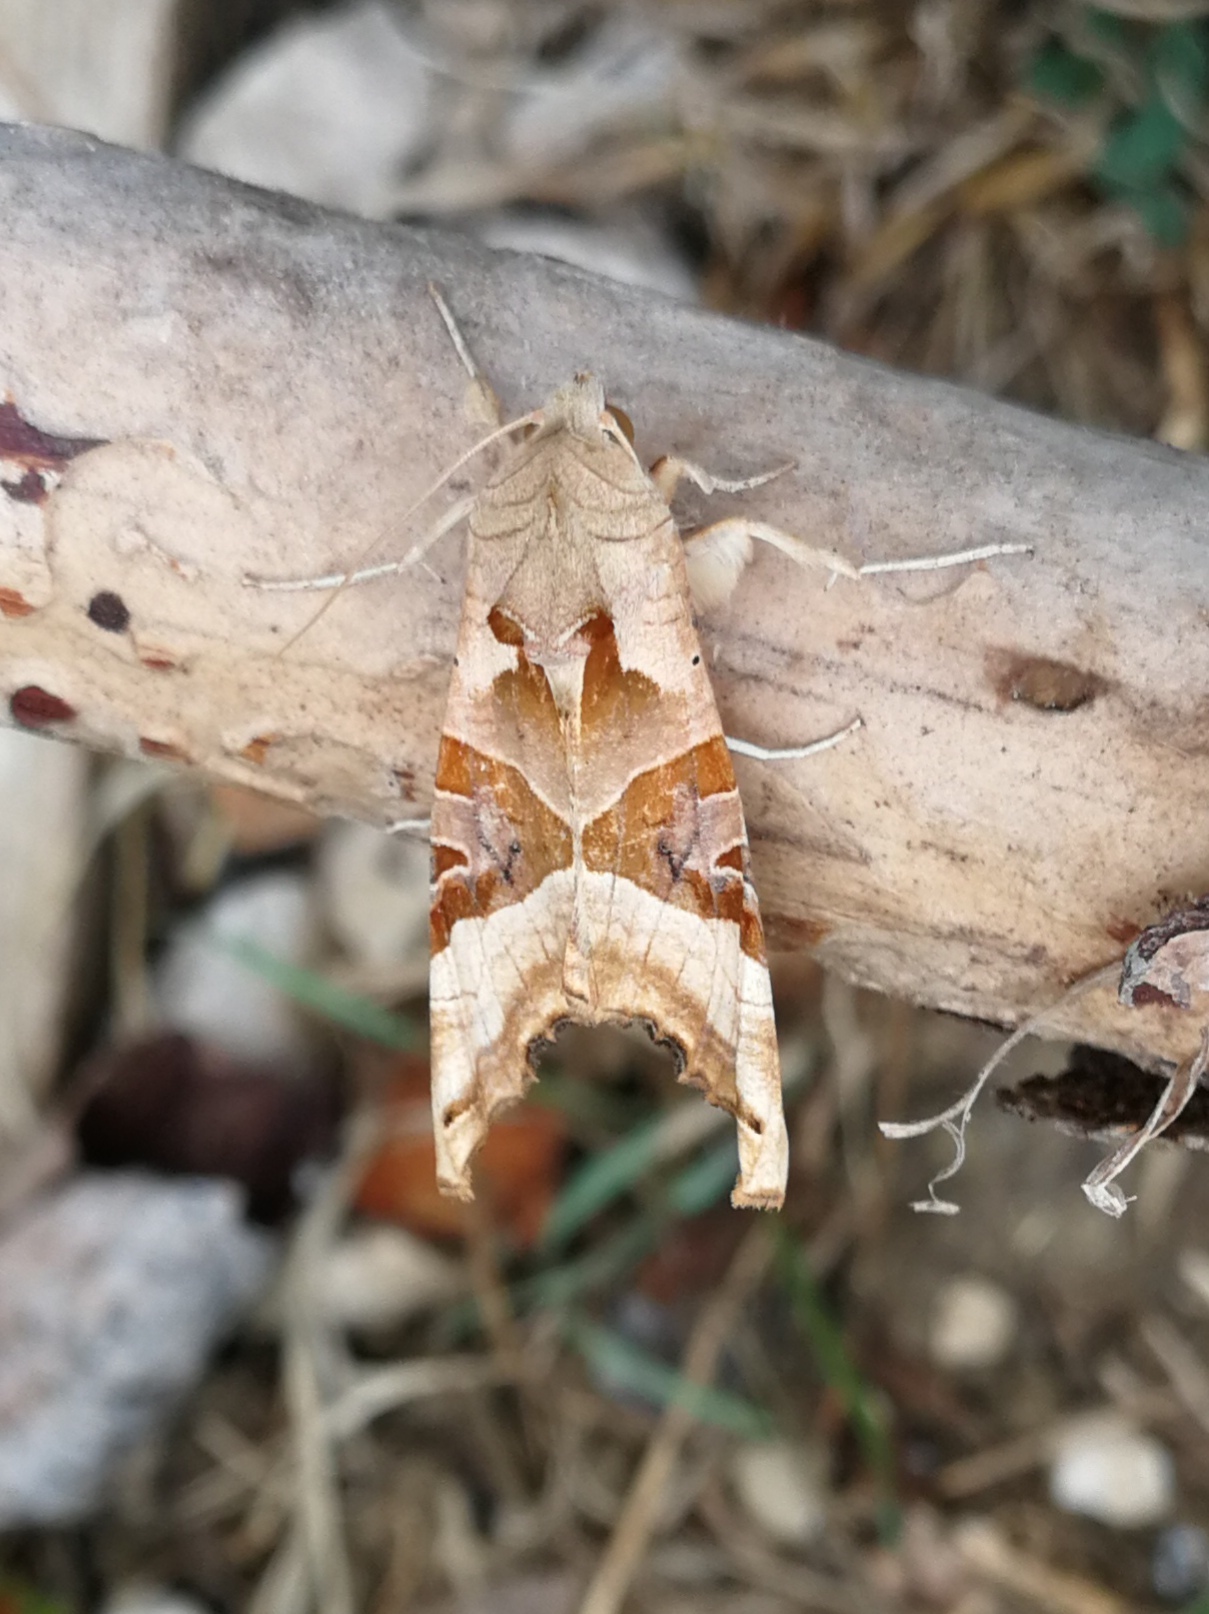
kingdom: Animalia
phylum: Arthropoda
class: Insecta
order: Lepidoptera
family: Noctuidae
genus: Phlogophora
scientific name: Phlogophora meticulosa
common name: Angle shades
